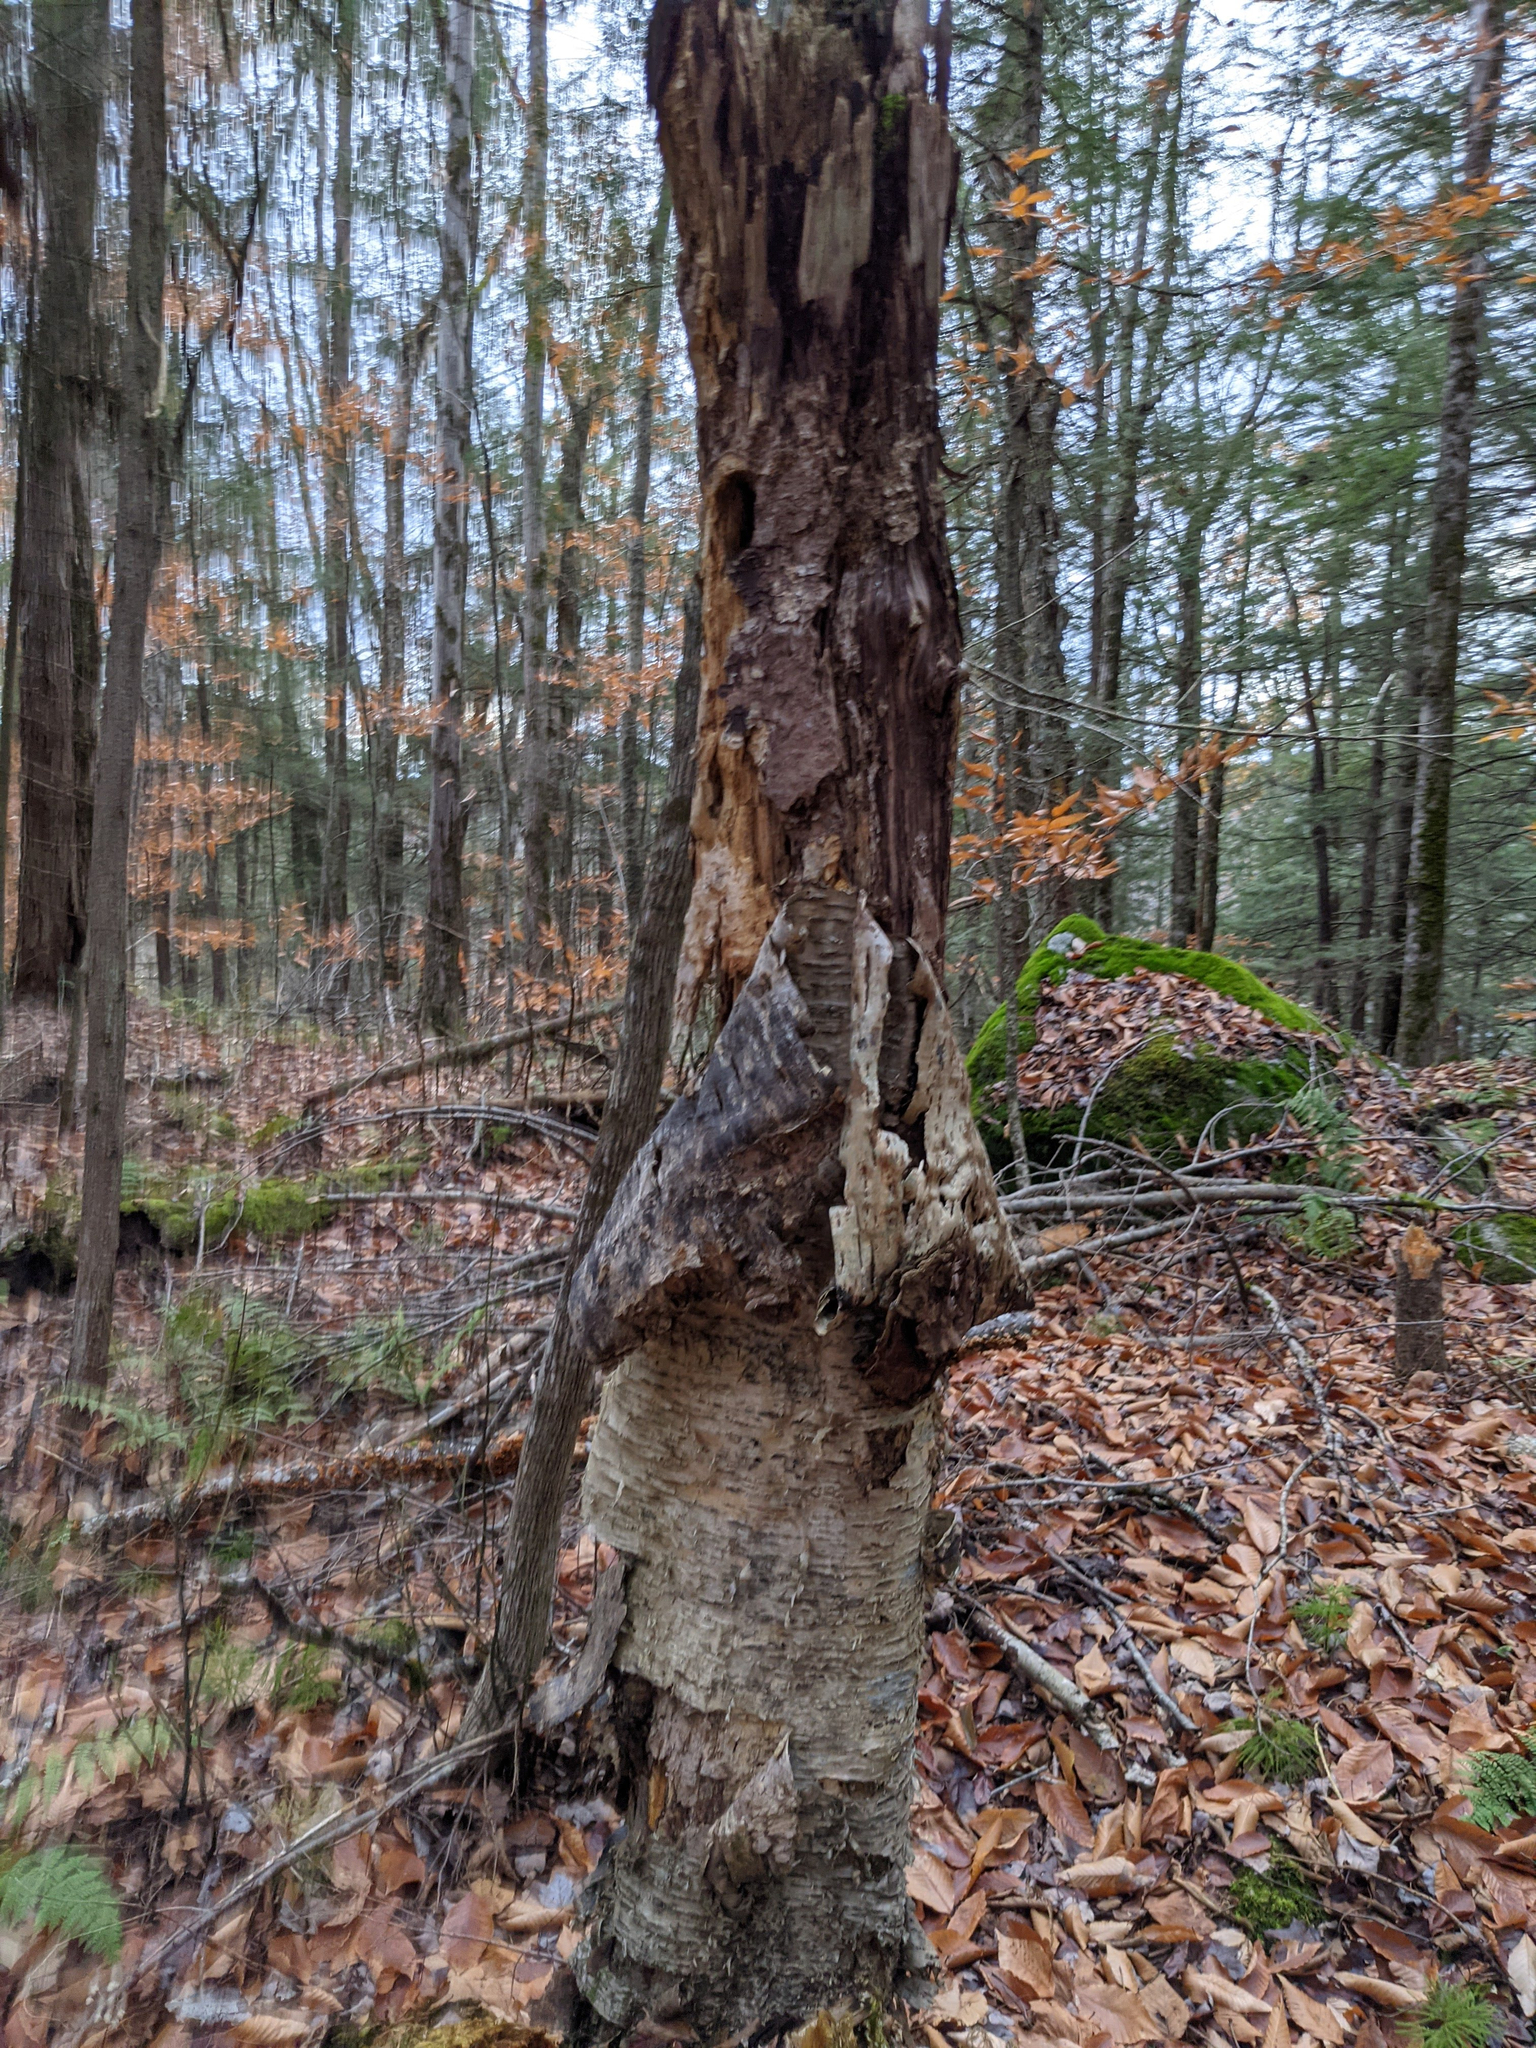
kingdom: Plantae
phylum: Tracheophyta
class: Magnoliopsida
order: Fagales
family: Betulaceae
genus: Betula
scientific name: Betula alleghaniensis
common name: Yellow birch
